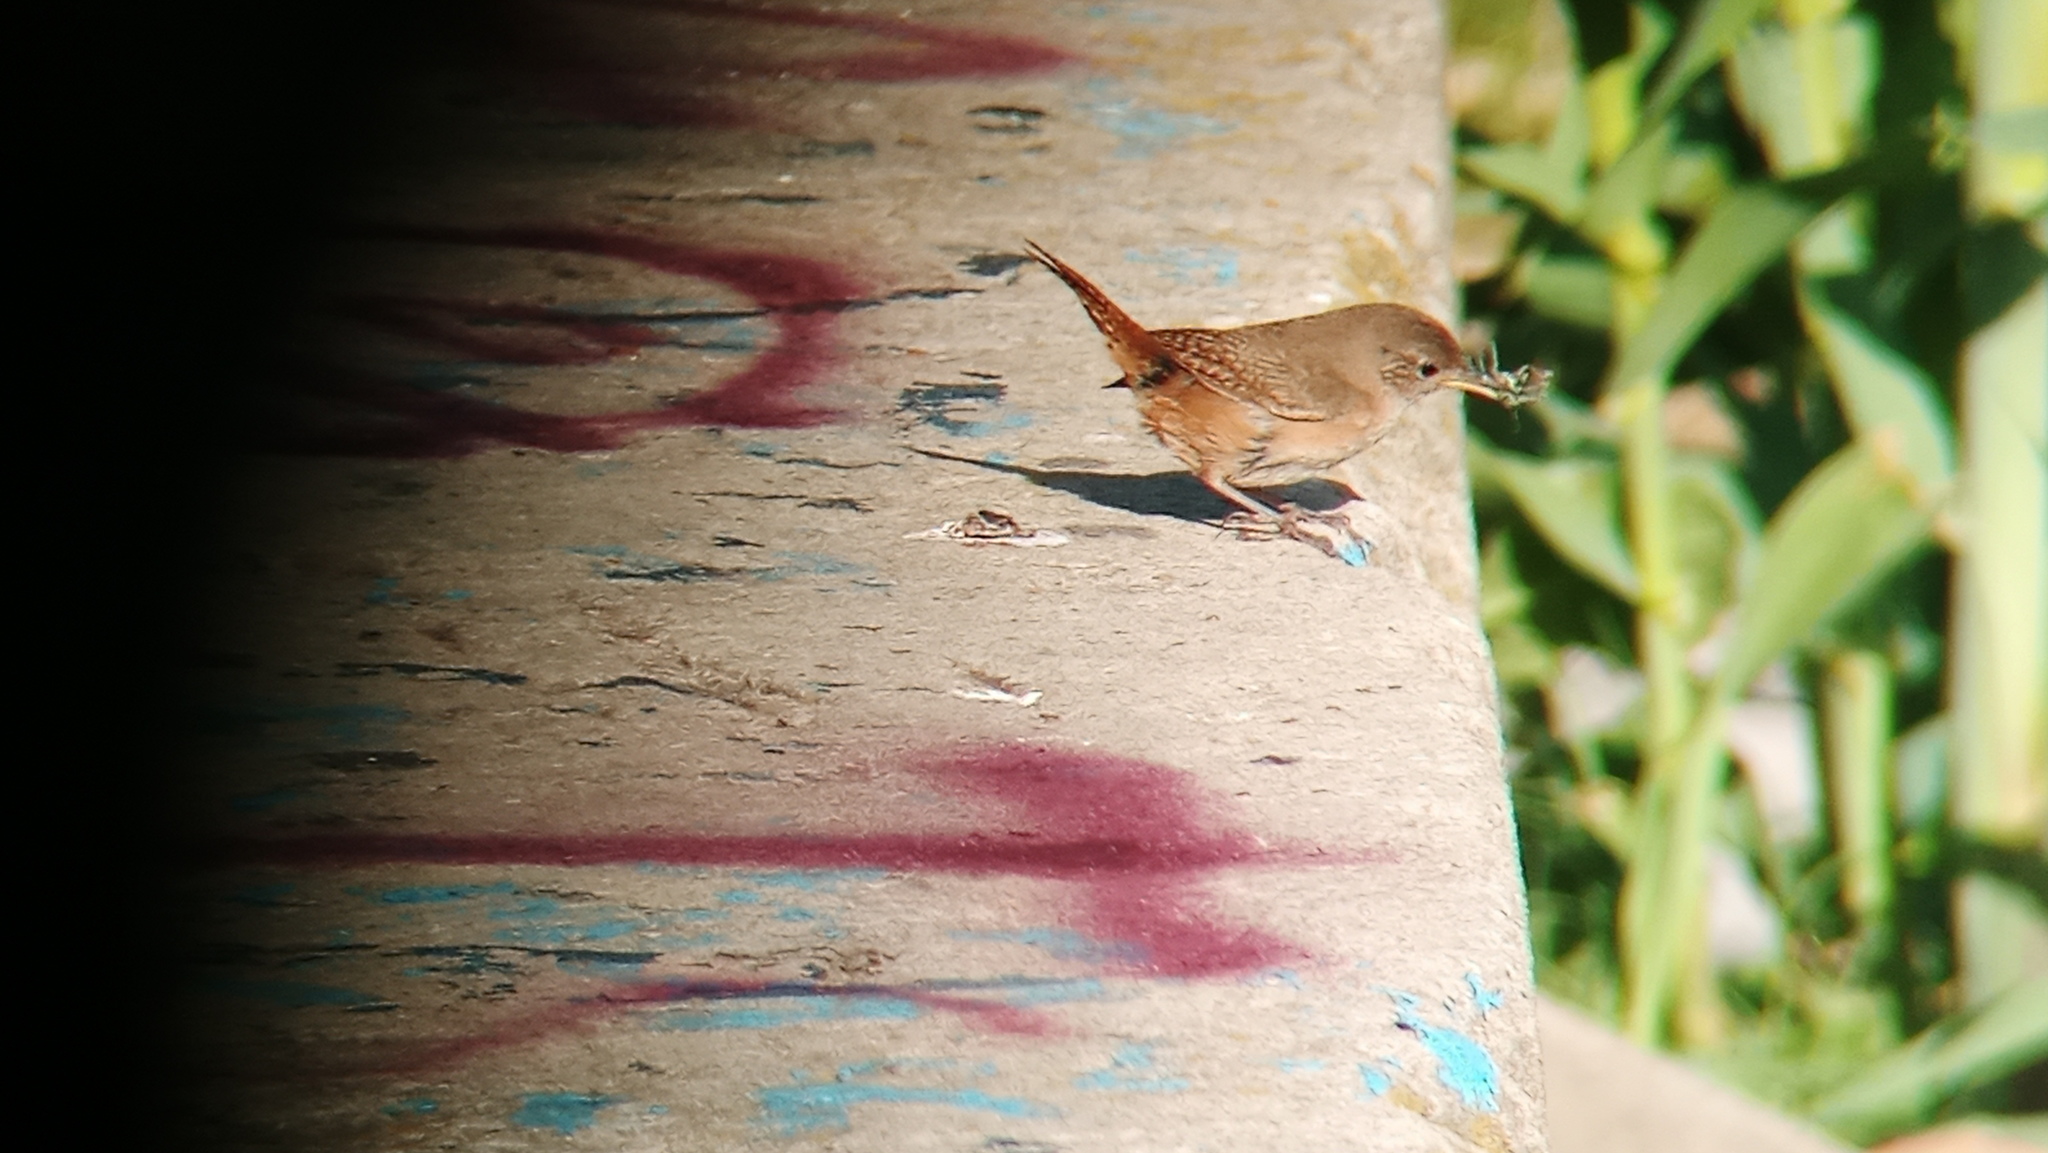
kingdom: Animalia
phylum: Chordata
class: Aves
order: Passeriformes
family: Troglodytidae
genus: Troglodytes
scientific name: Troglodytes aedon
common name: House wren
